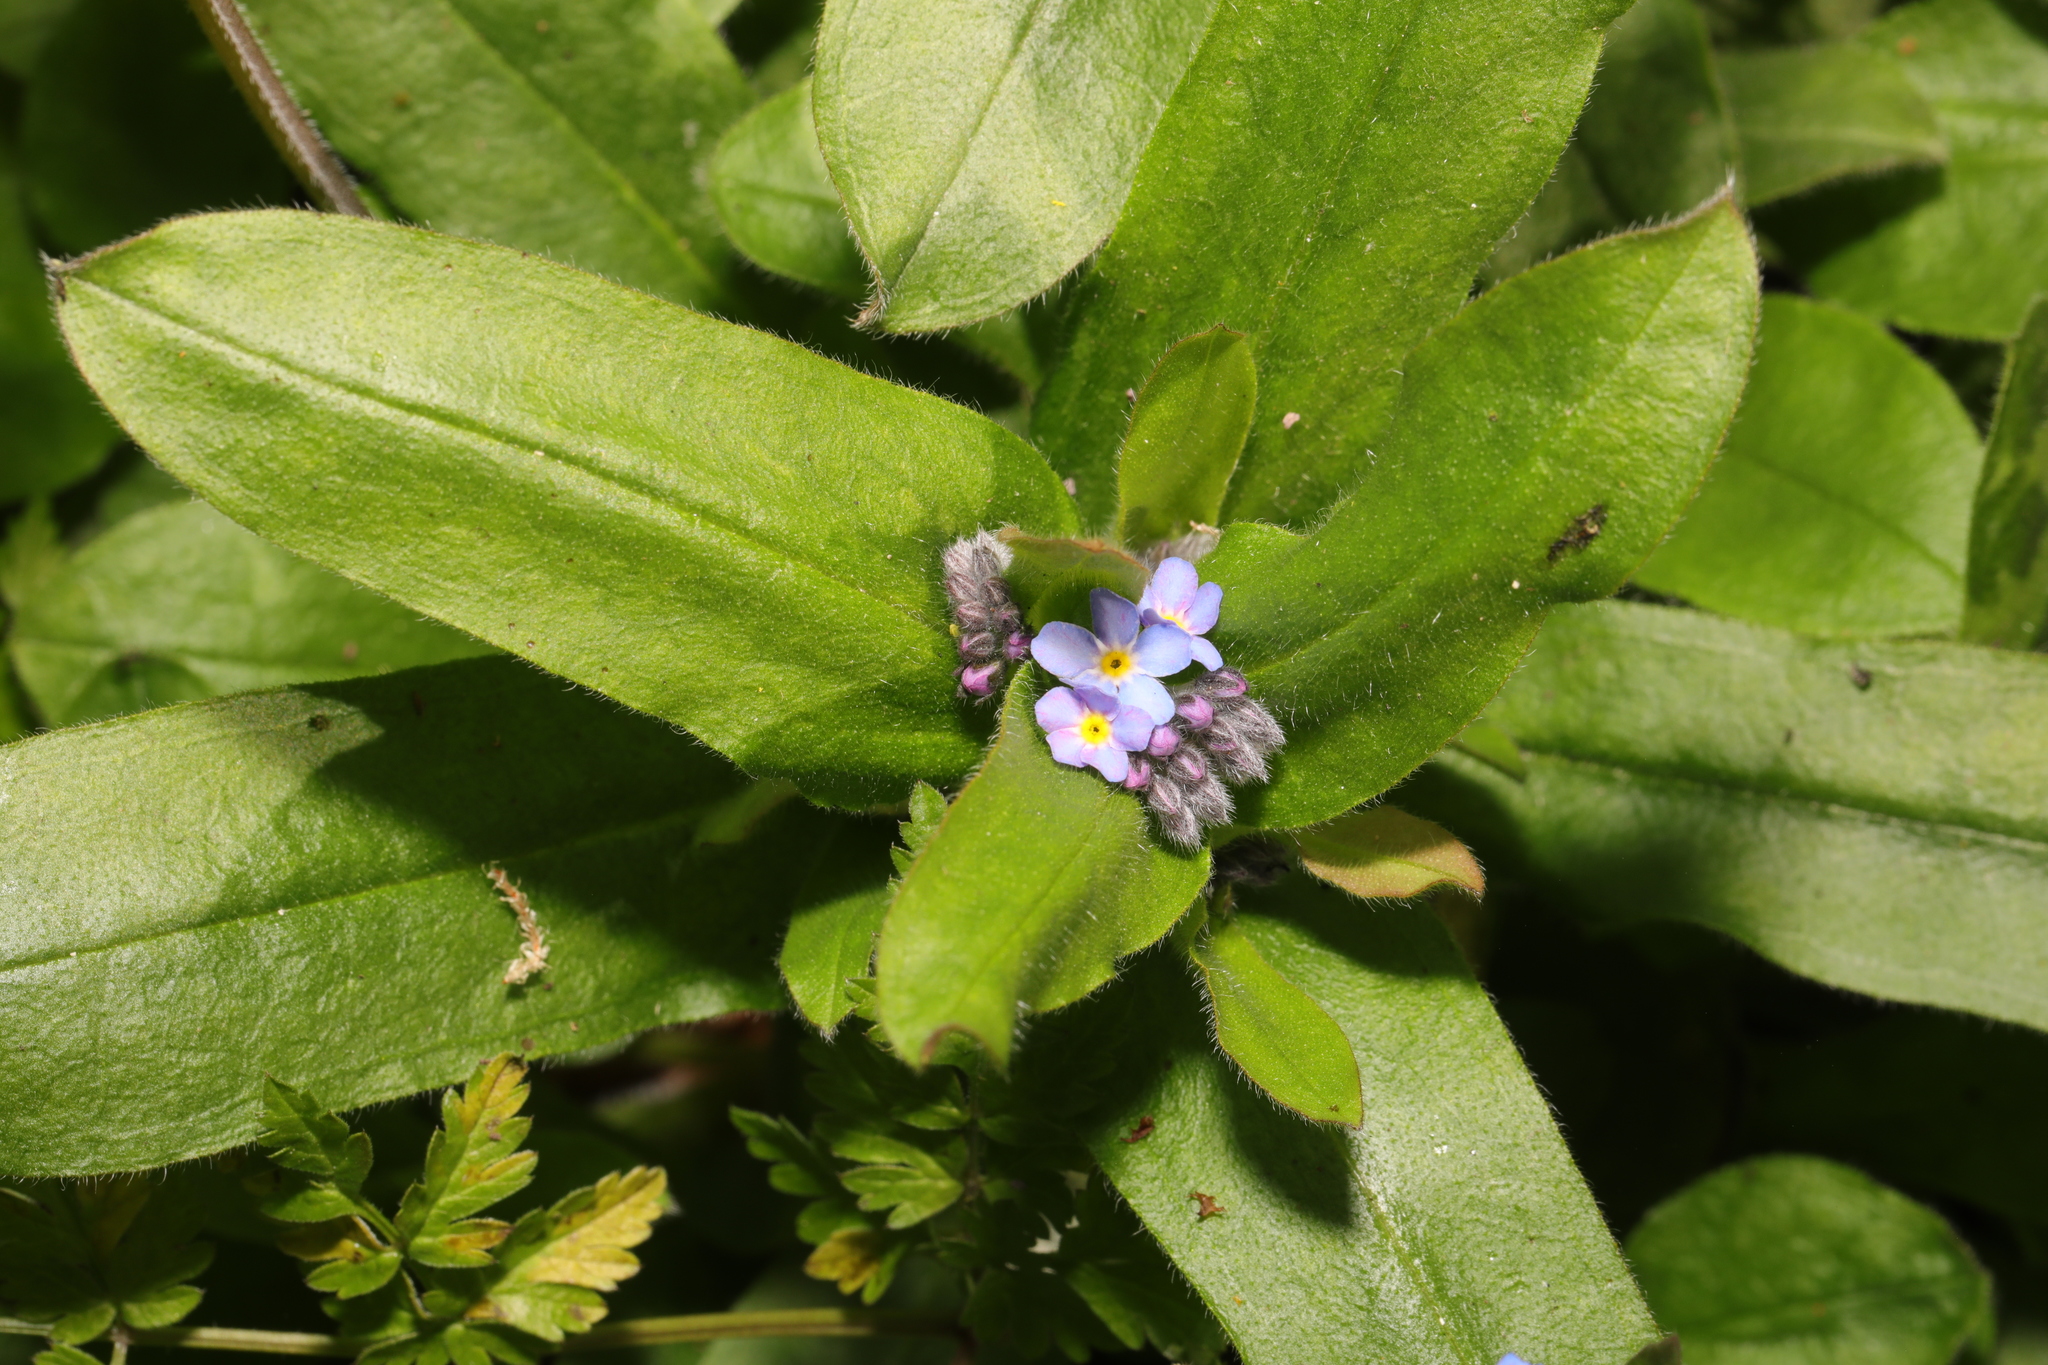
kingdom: Plantae
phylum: Tracheophyta
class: Magnoliopsida
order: Boraginales
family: Boraginaceae
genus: Myosotis
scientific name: Myosotis sylvatica
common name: Wood forget-me-not
